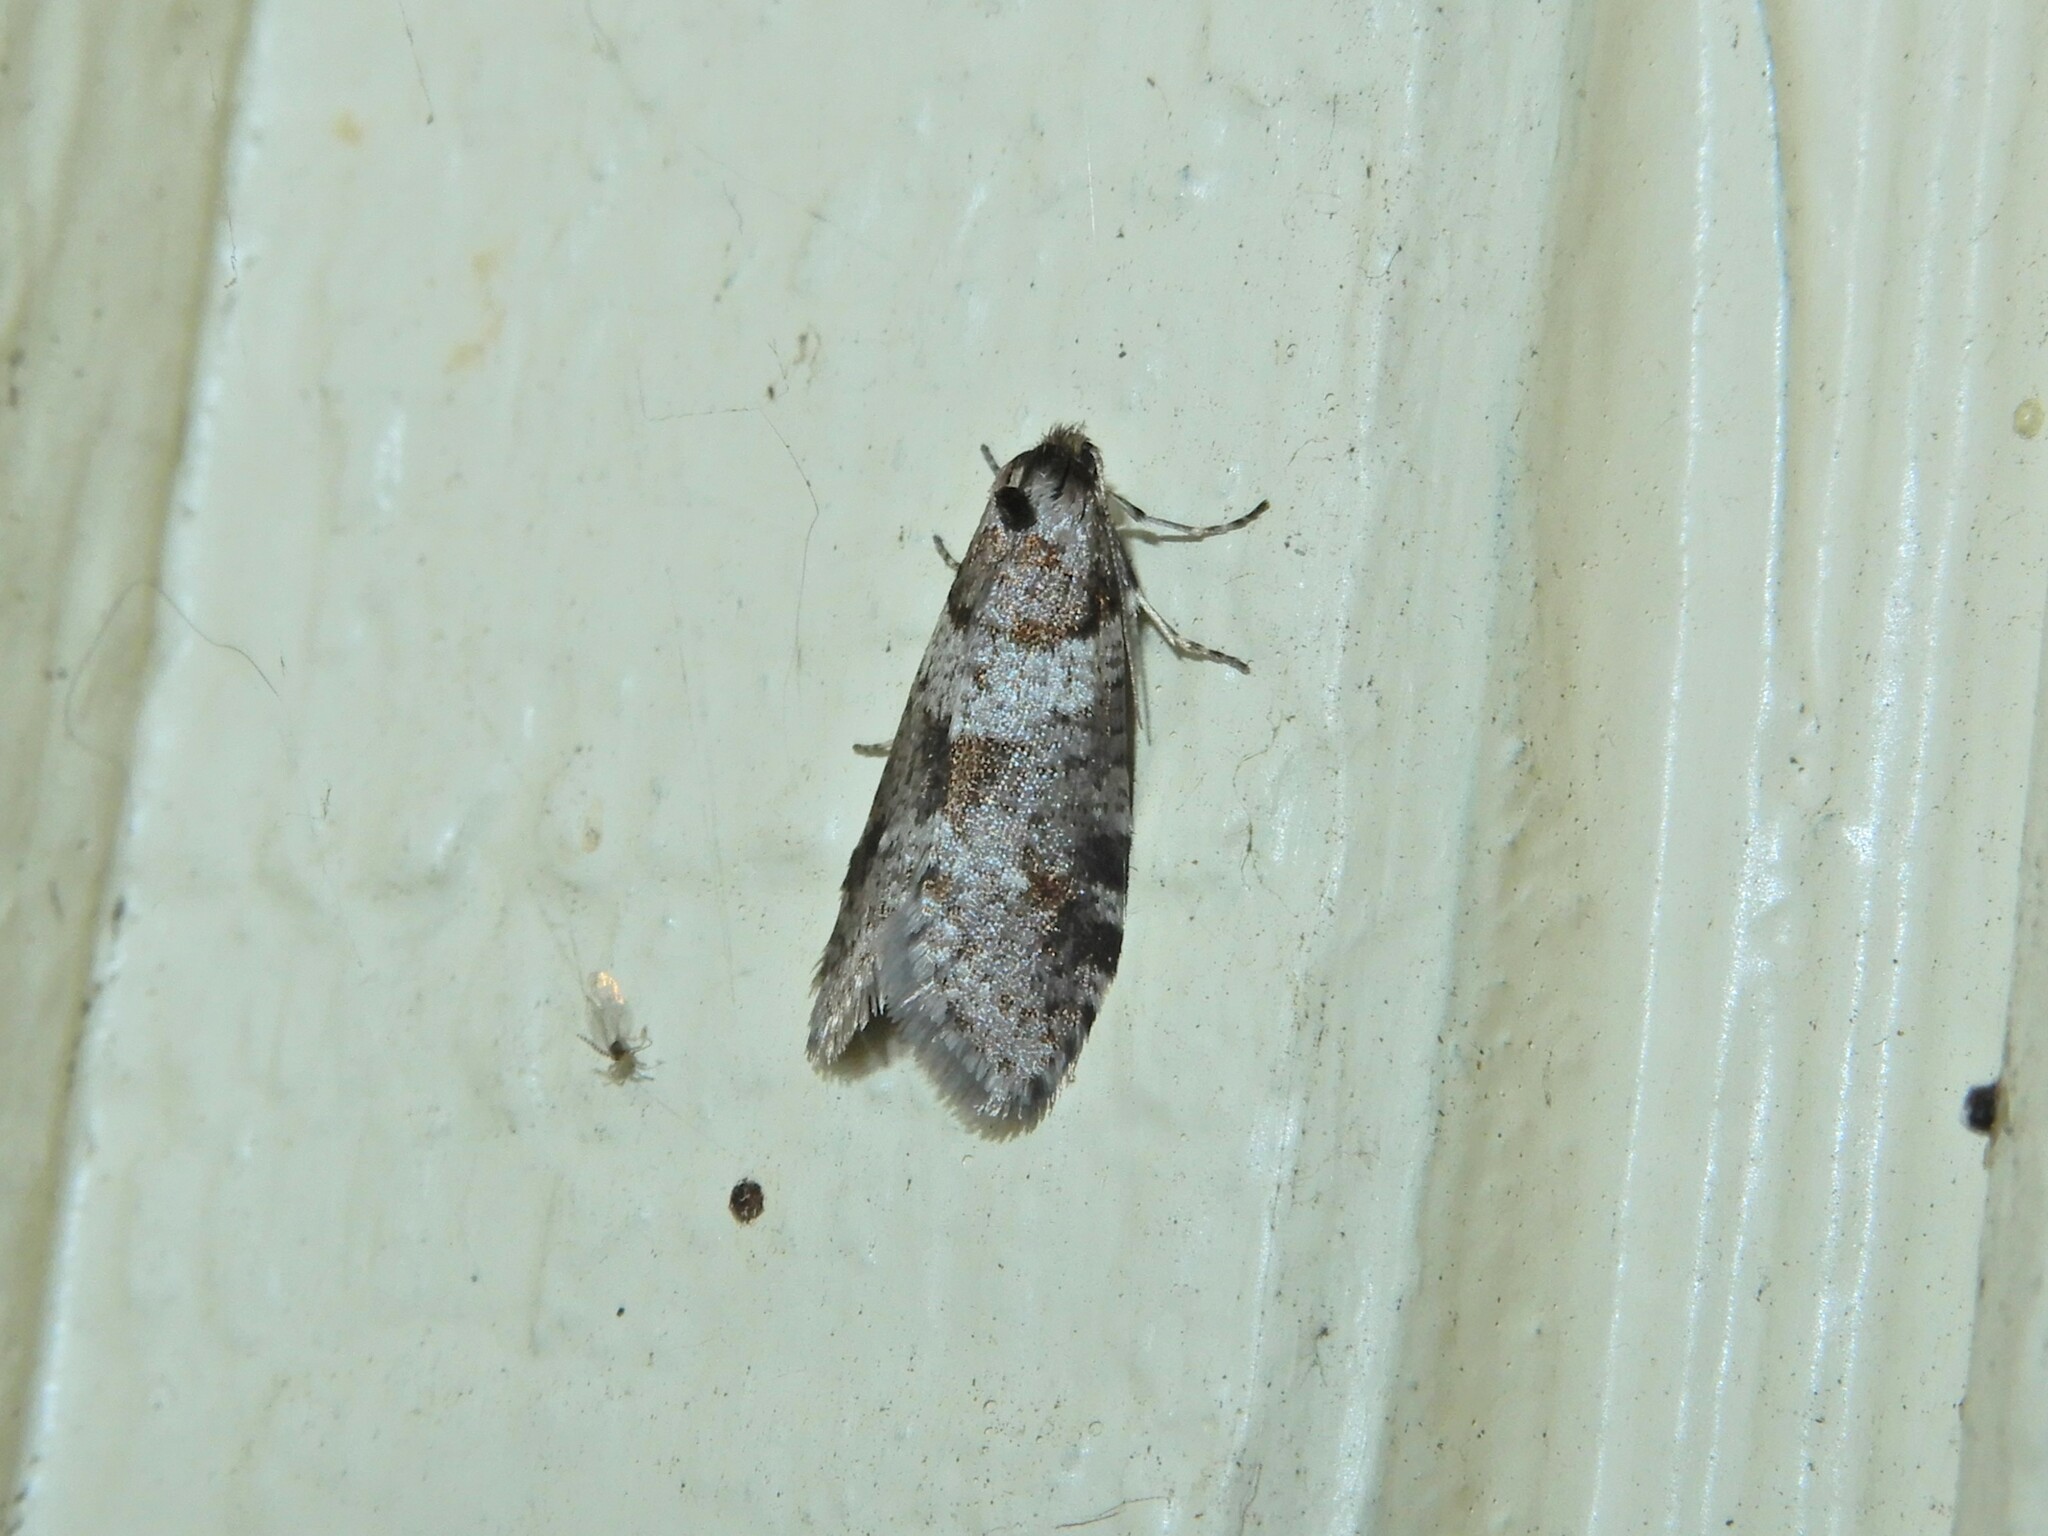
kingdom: Animalia
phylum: Arthropoda
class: Insecta
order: Lepidoptera
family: Psychidae
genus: Lepidoscia
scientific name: Lepidoscia heliochares
